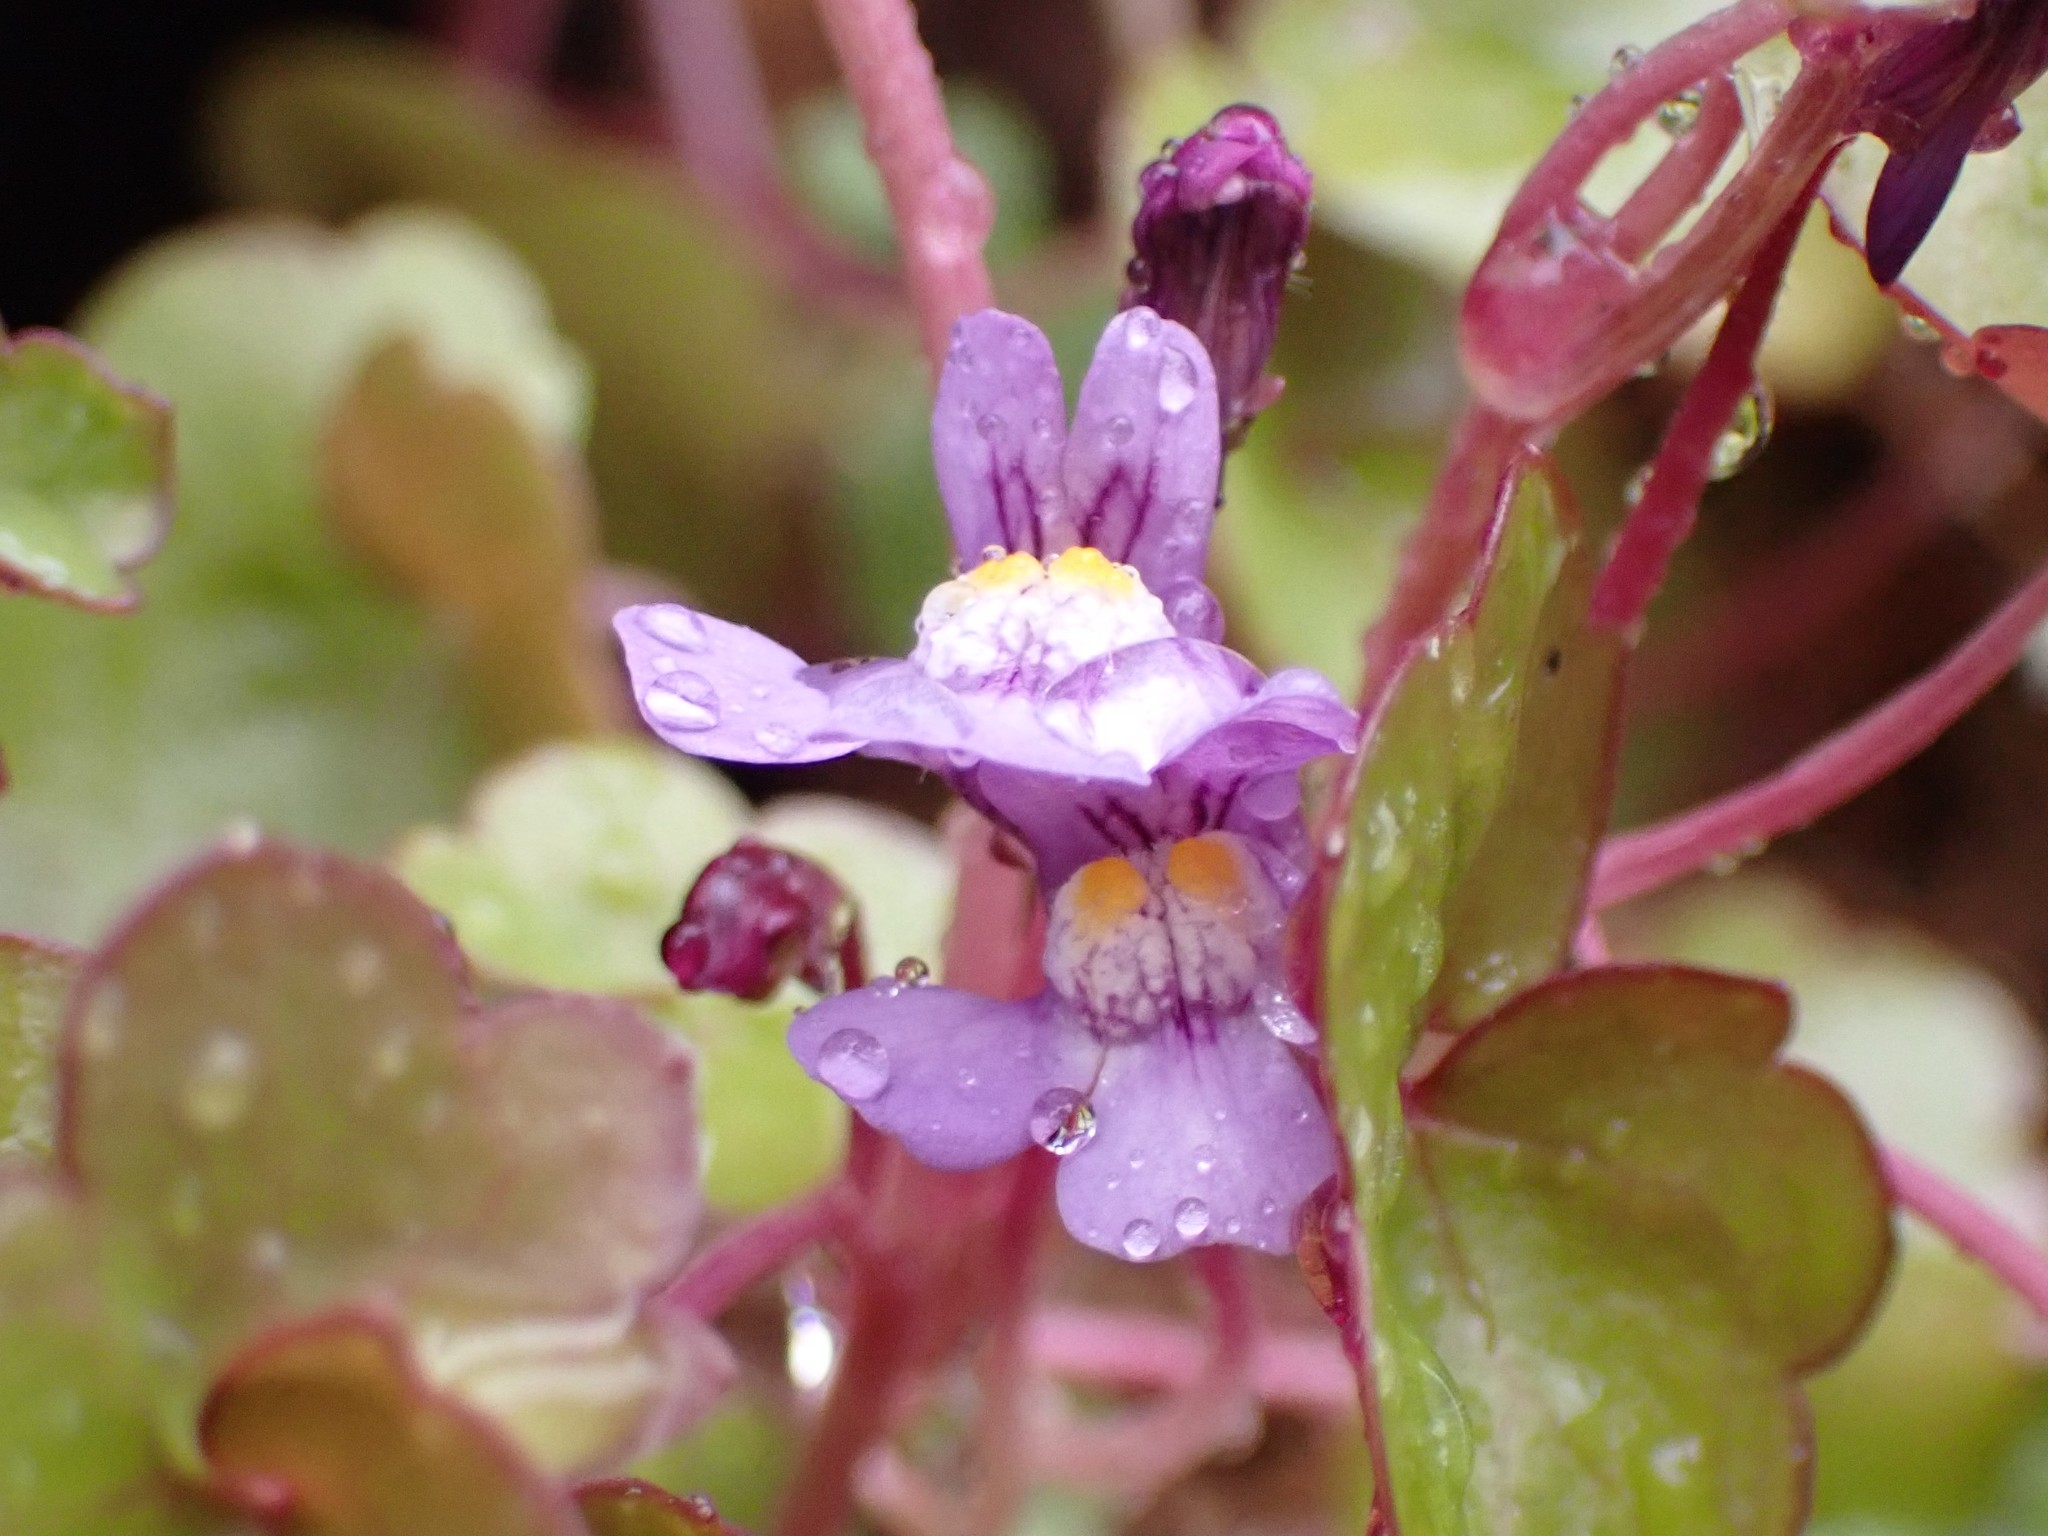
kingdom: Plantae
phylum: Tracheophyta
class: Magnoliopsida
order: Lamiales
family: Plantaginaceae
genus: Cymbalaria
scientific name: Cymbalaria muralis
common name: Ivy-leaved toadflax
